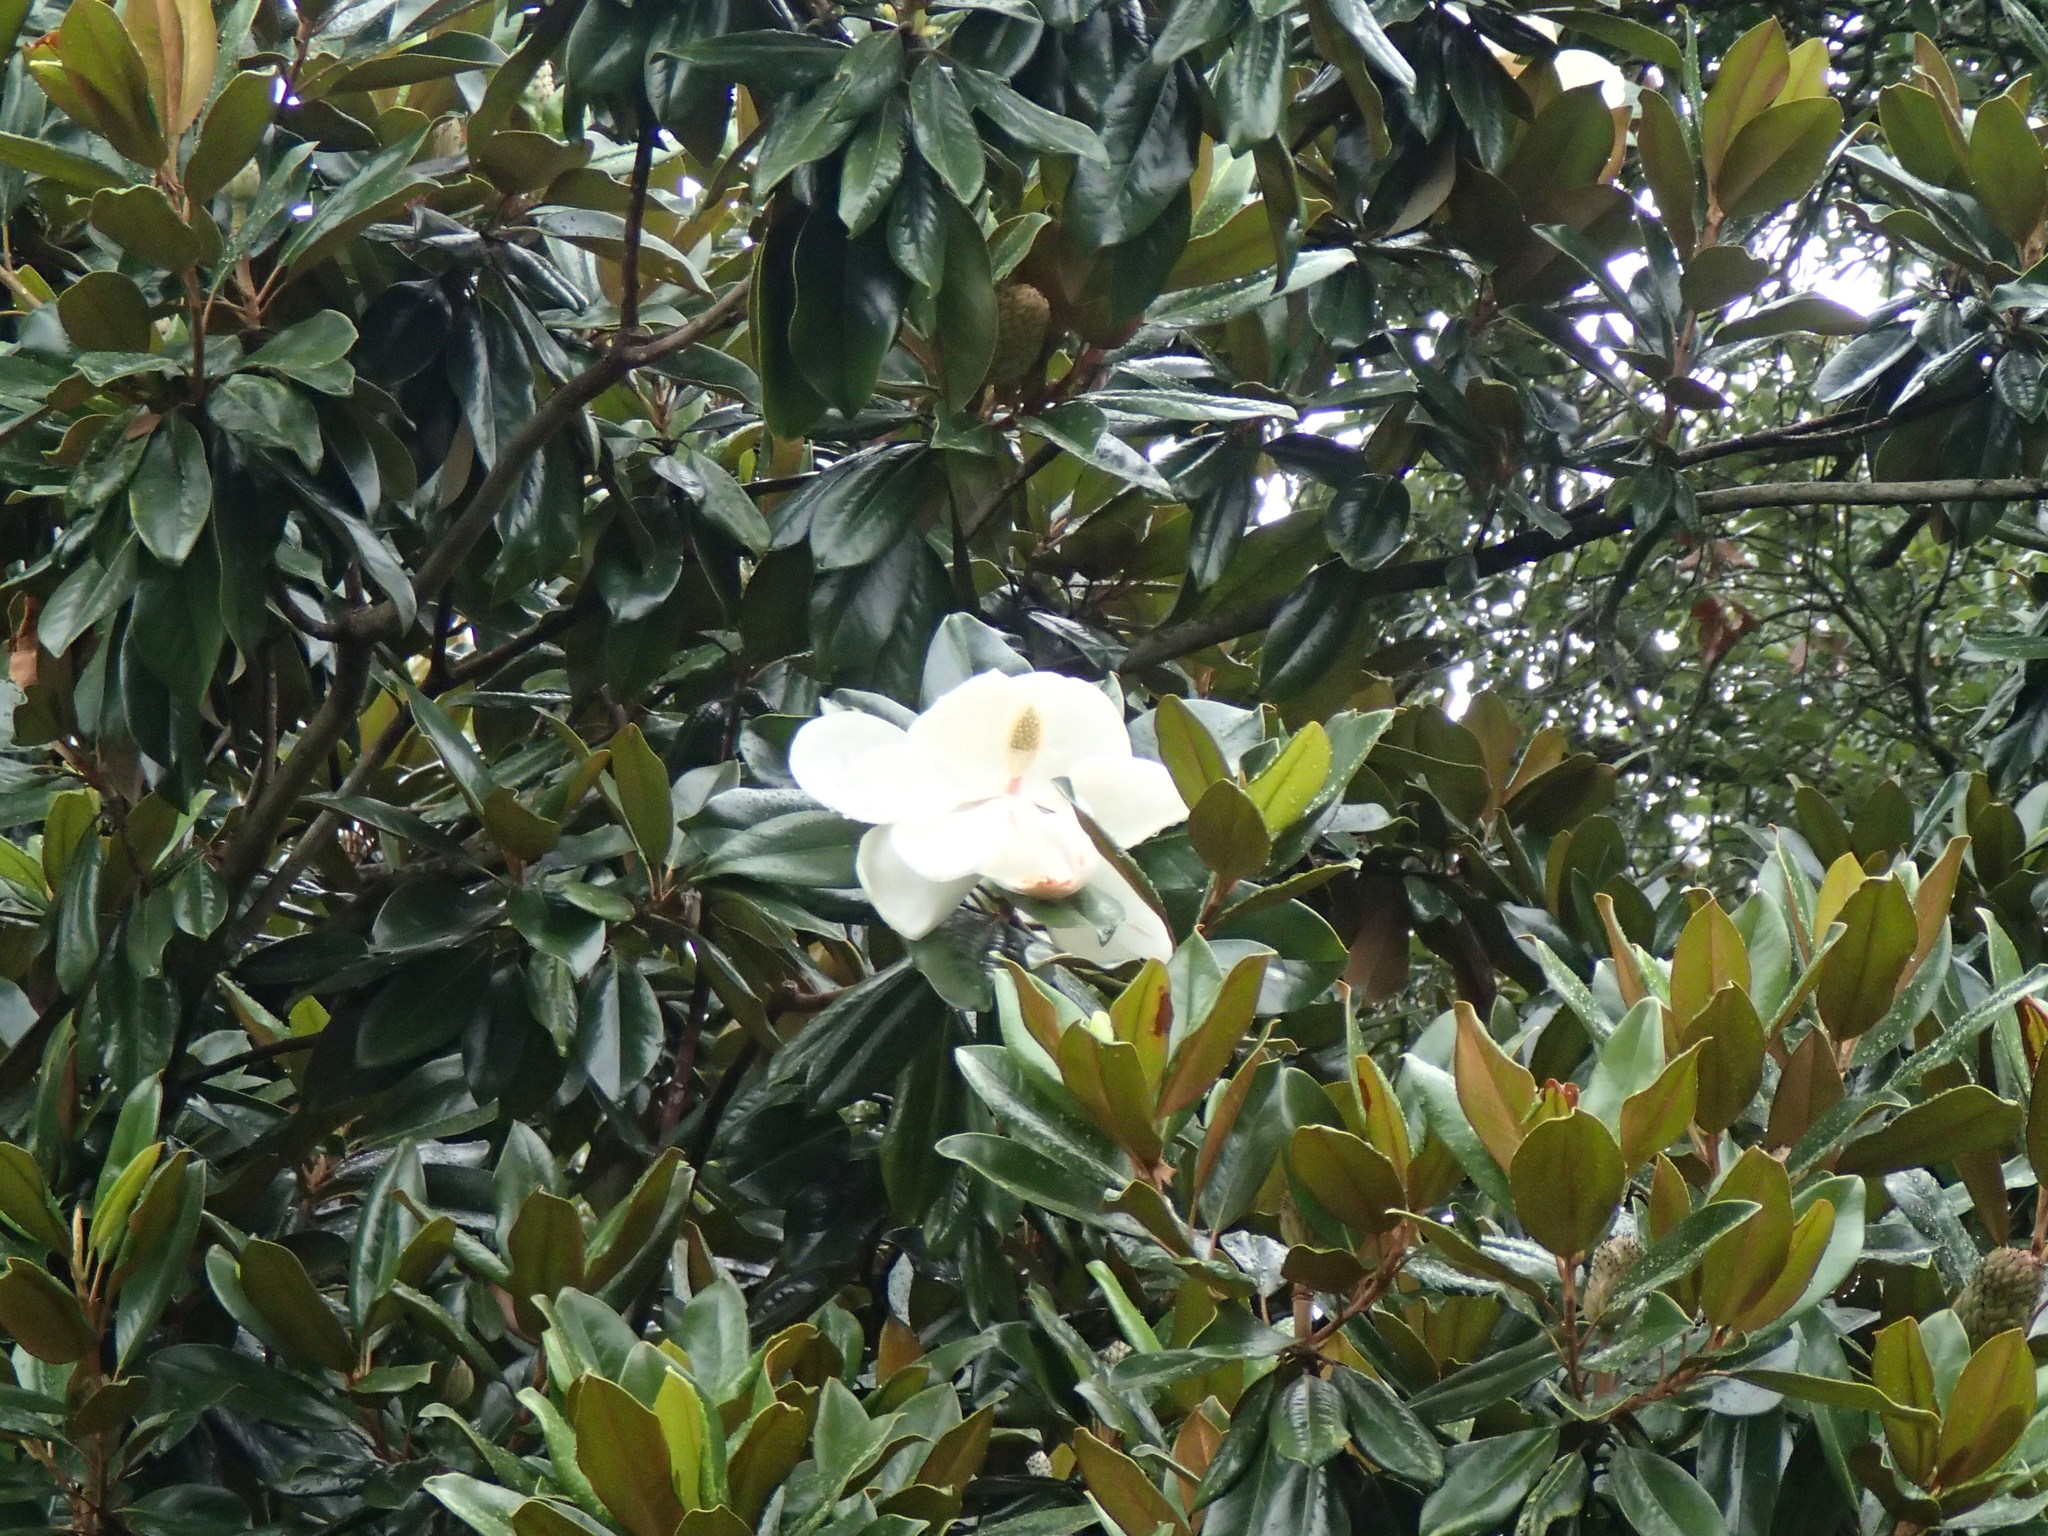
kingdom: Plantae
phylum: Tracheophyta
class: Magnoliopsida
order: Magnoliales
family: Magnoliaceae
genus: Magnolia
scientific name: Magnolia grandiflora
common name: Southern magnolia
